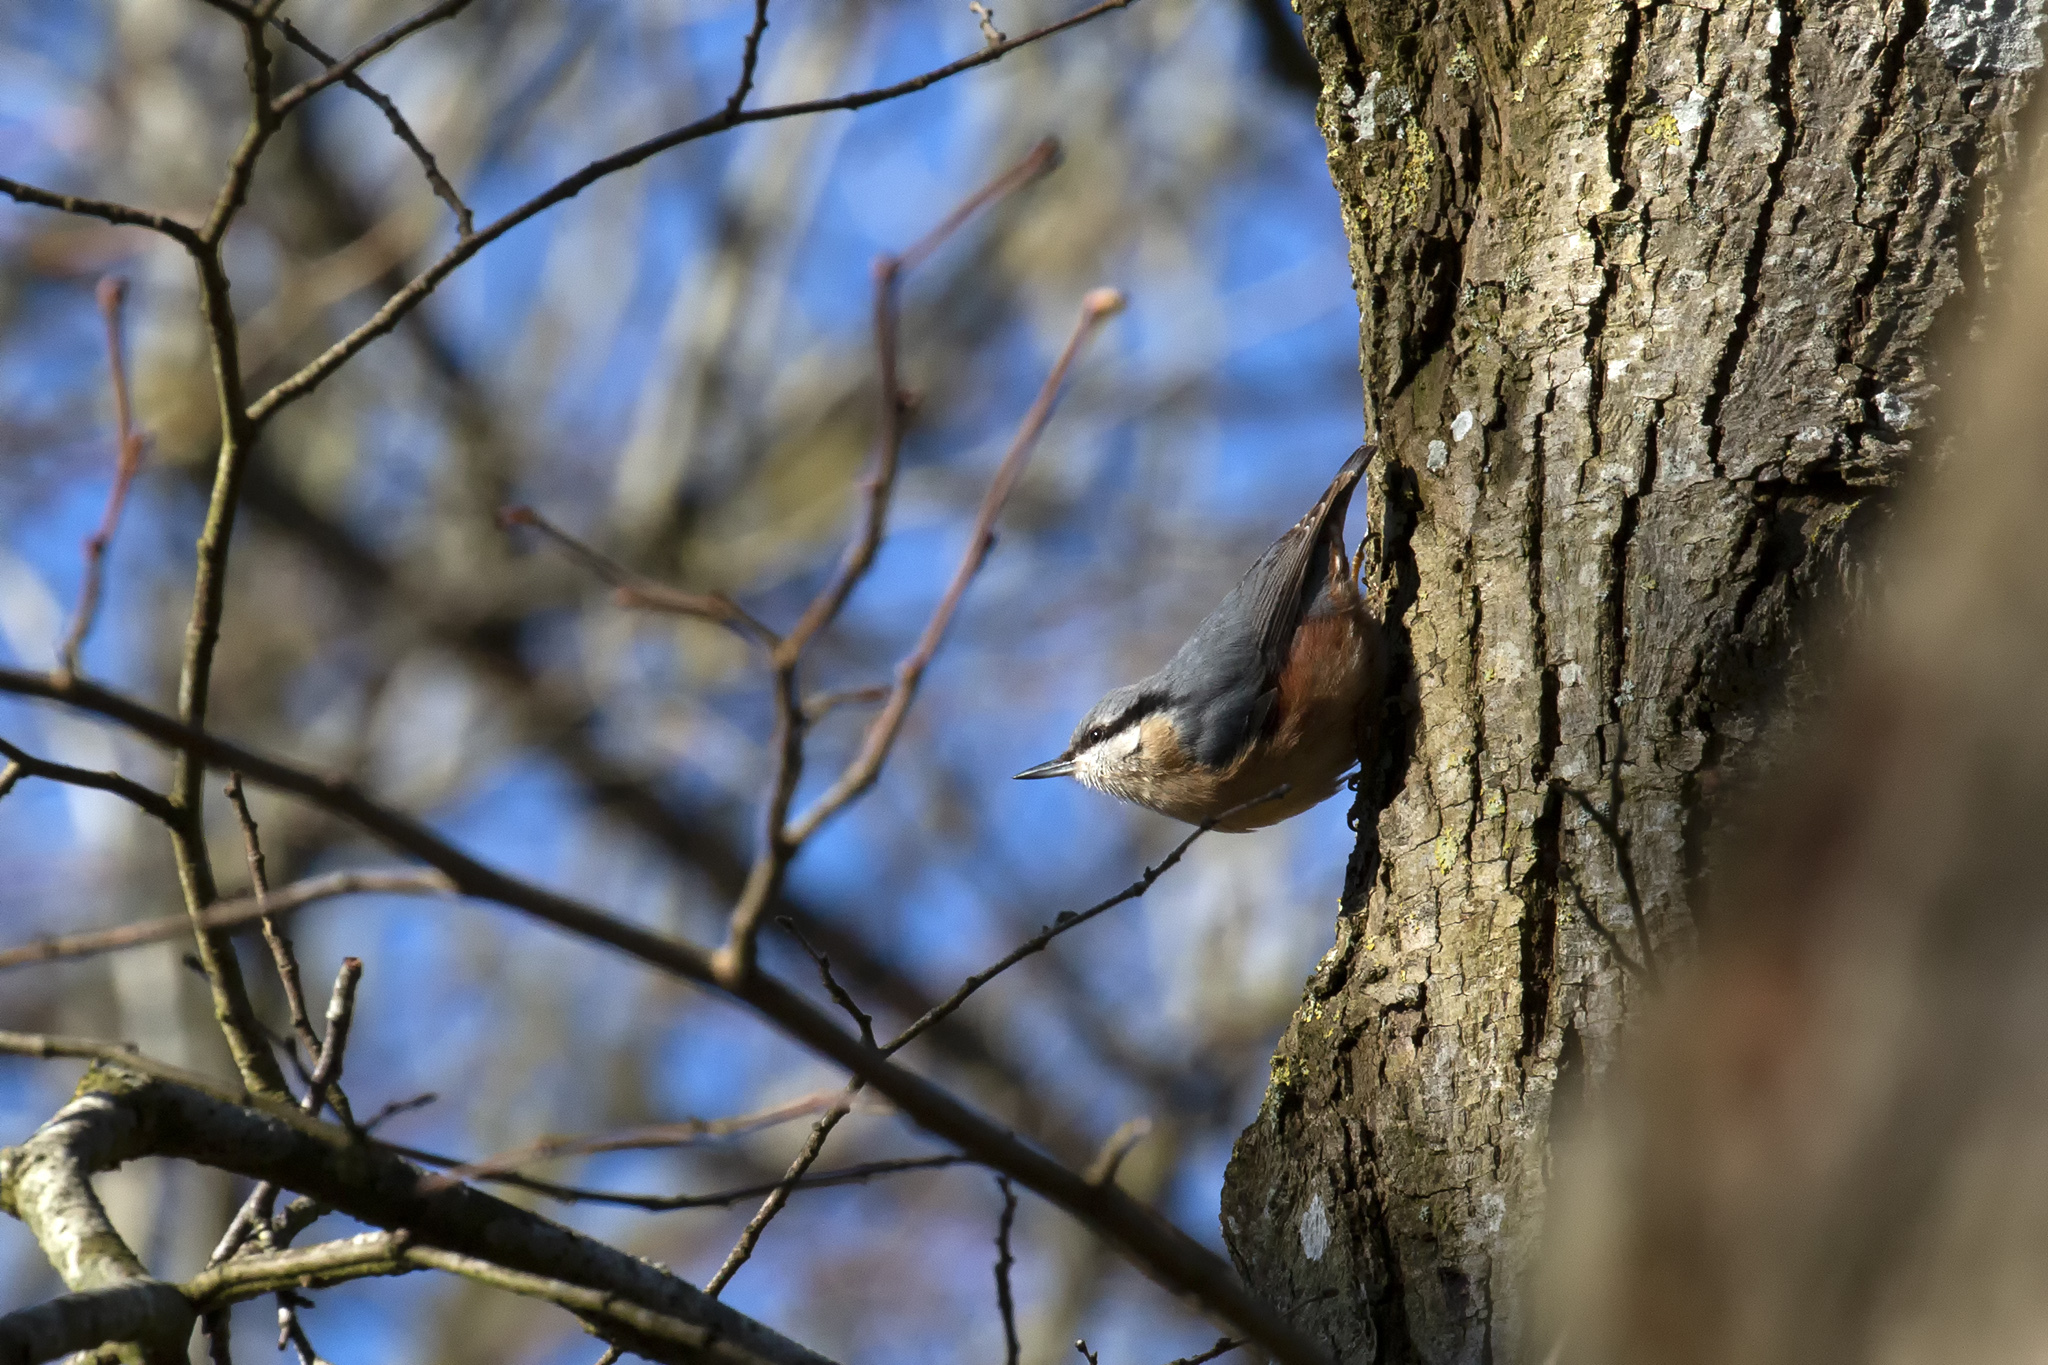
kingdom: Animalia
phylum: Chordata
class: Aves
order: Passeriformes
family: Sittidae
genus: Sitta
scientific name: Sitta europaea
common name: Eurasian nuthatch
